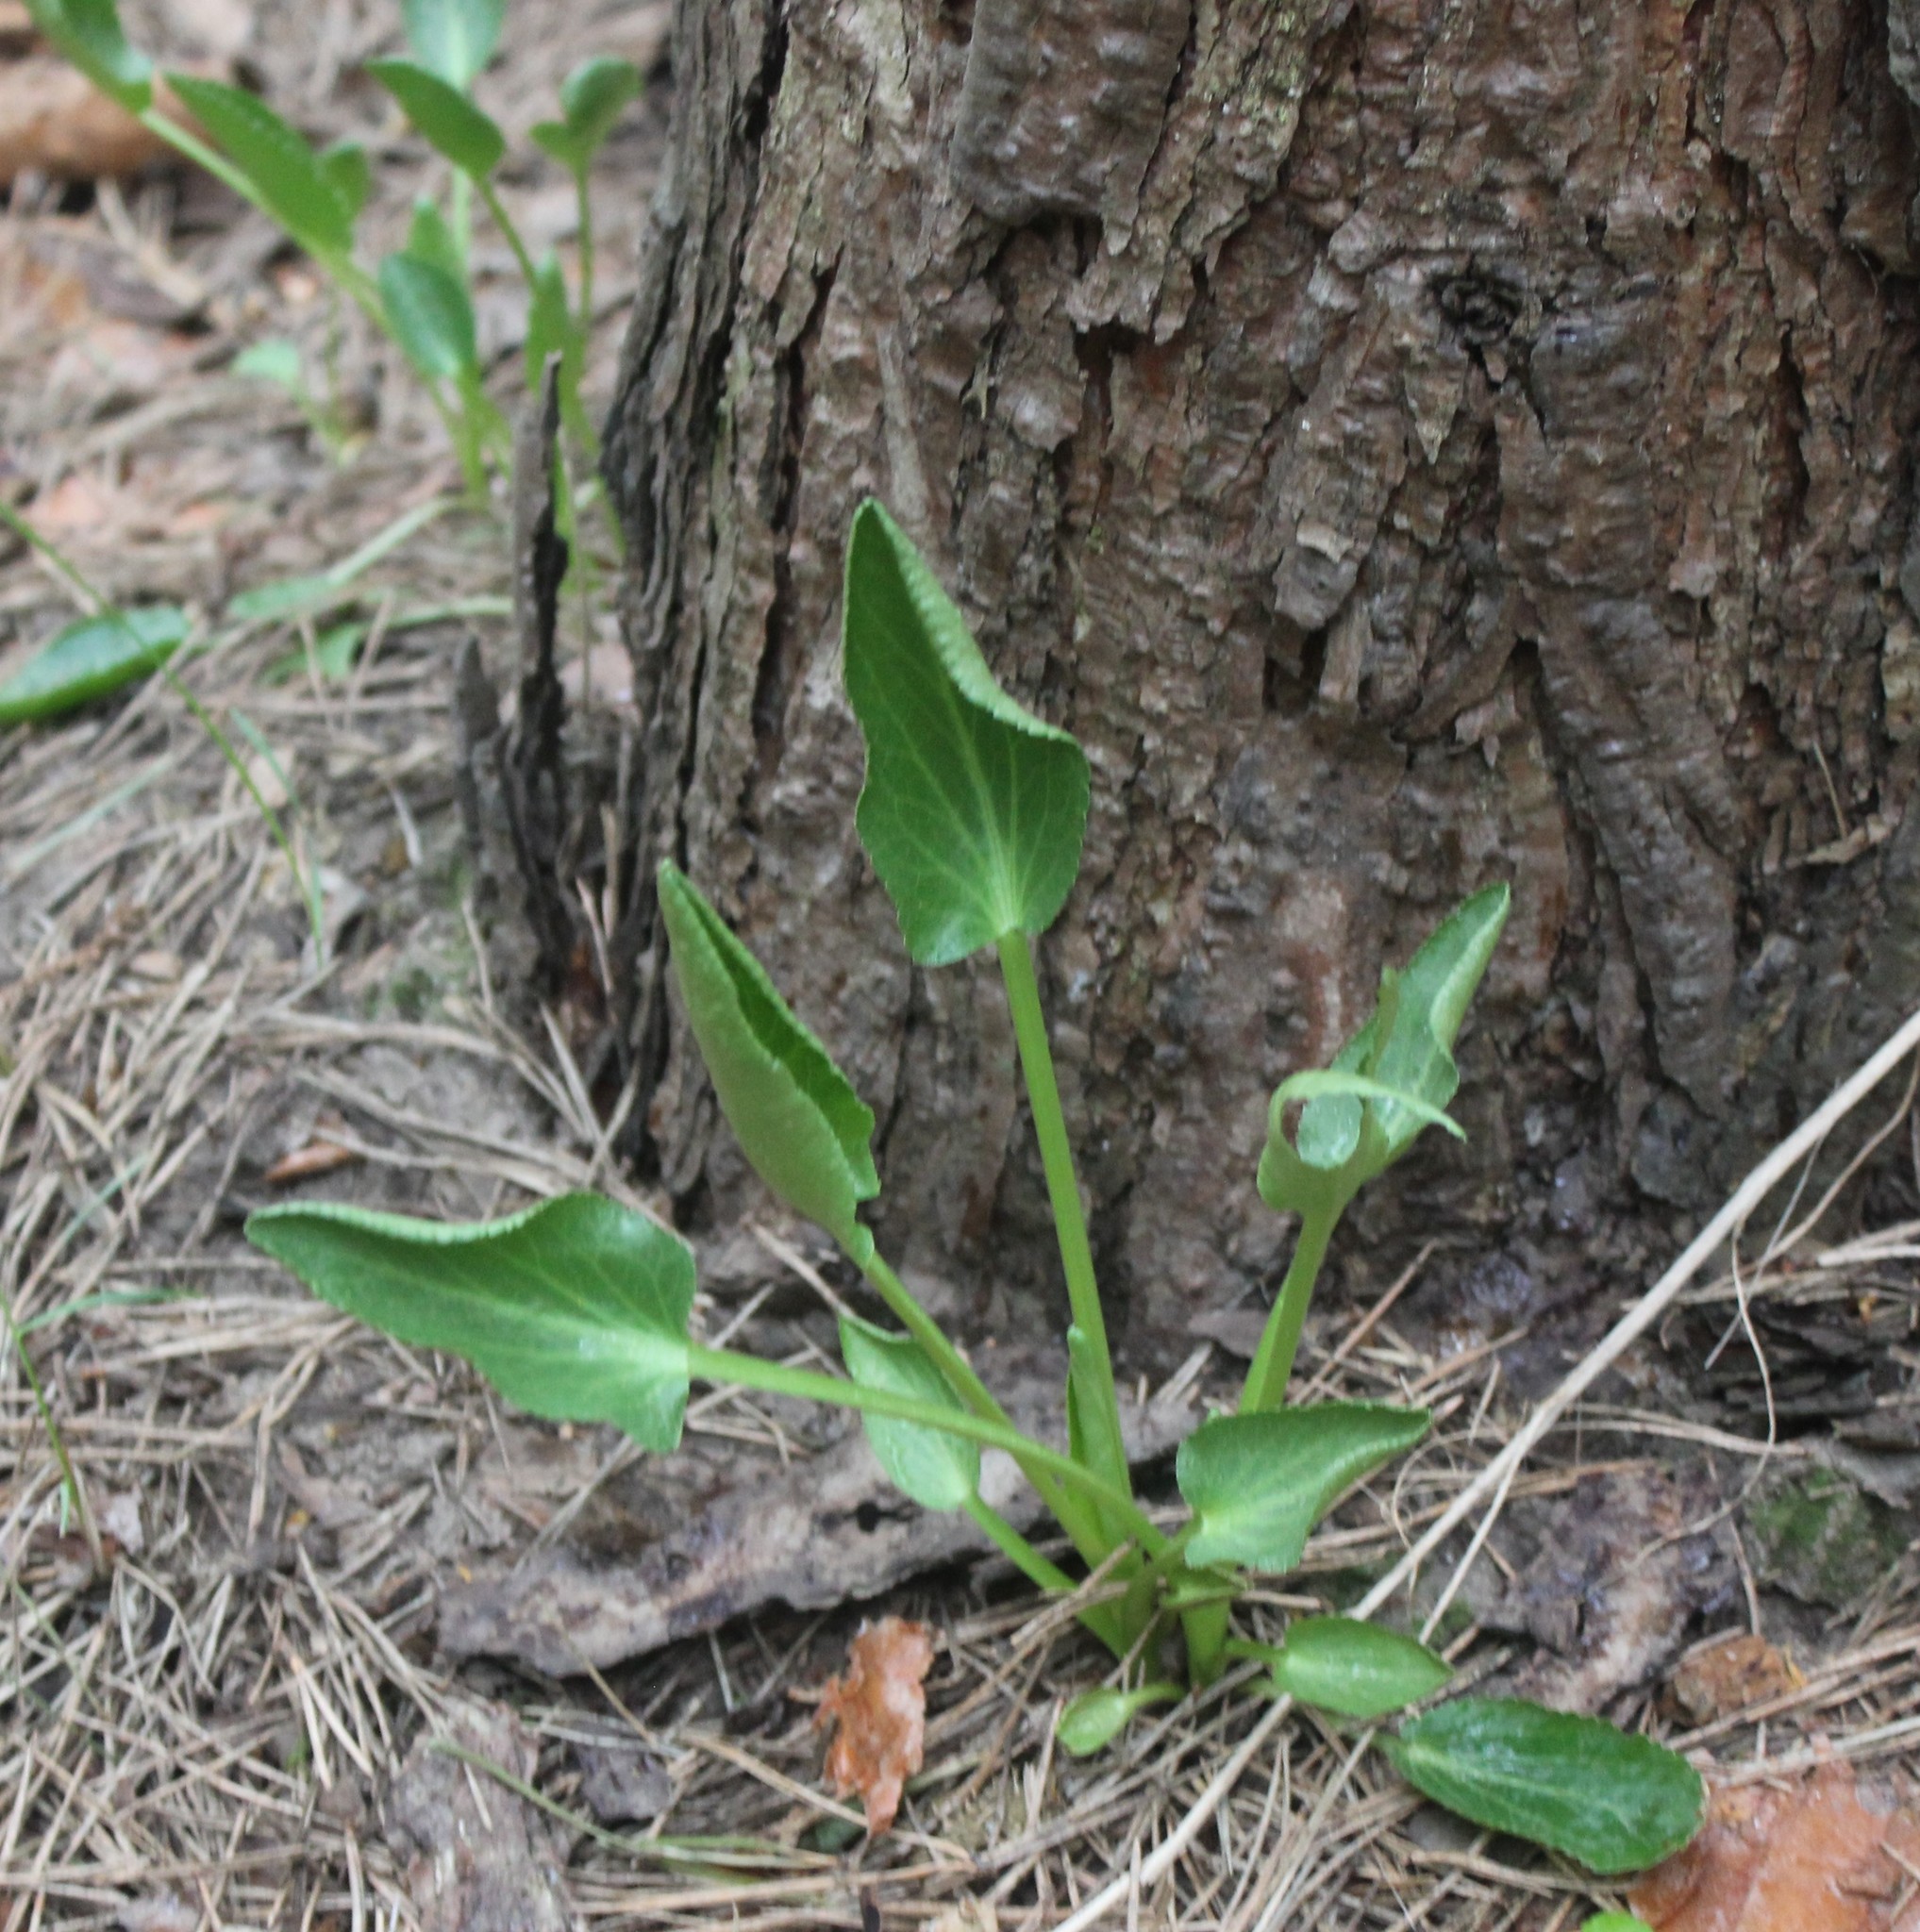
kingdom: Plantae
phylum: Tracheophyta
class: Magnoliopsida
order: Apiales
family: Apiaceae
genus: Eryngium
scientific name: Eryngium planum
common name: Blue eryngo
